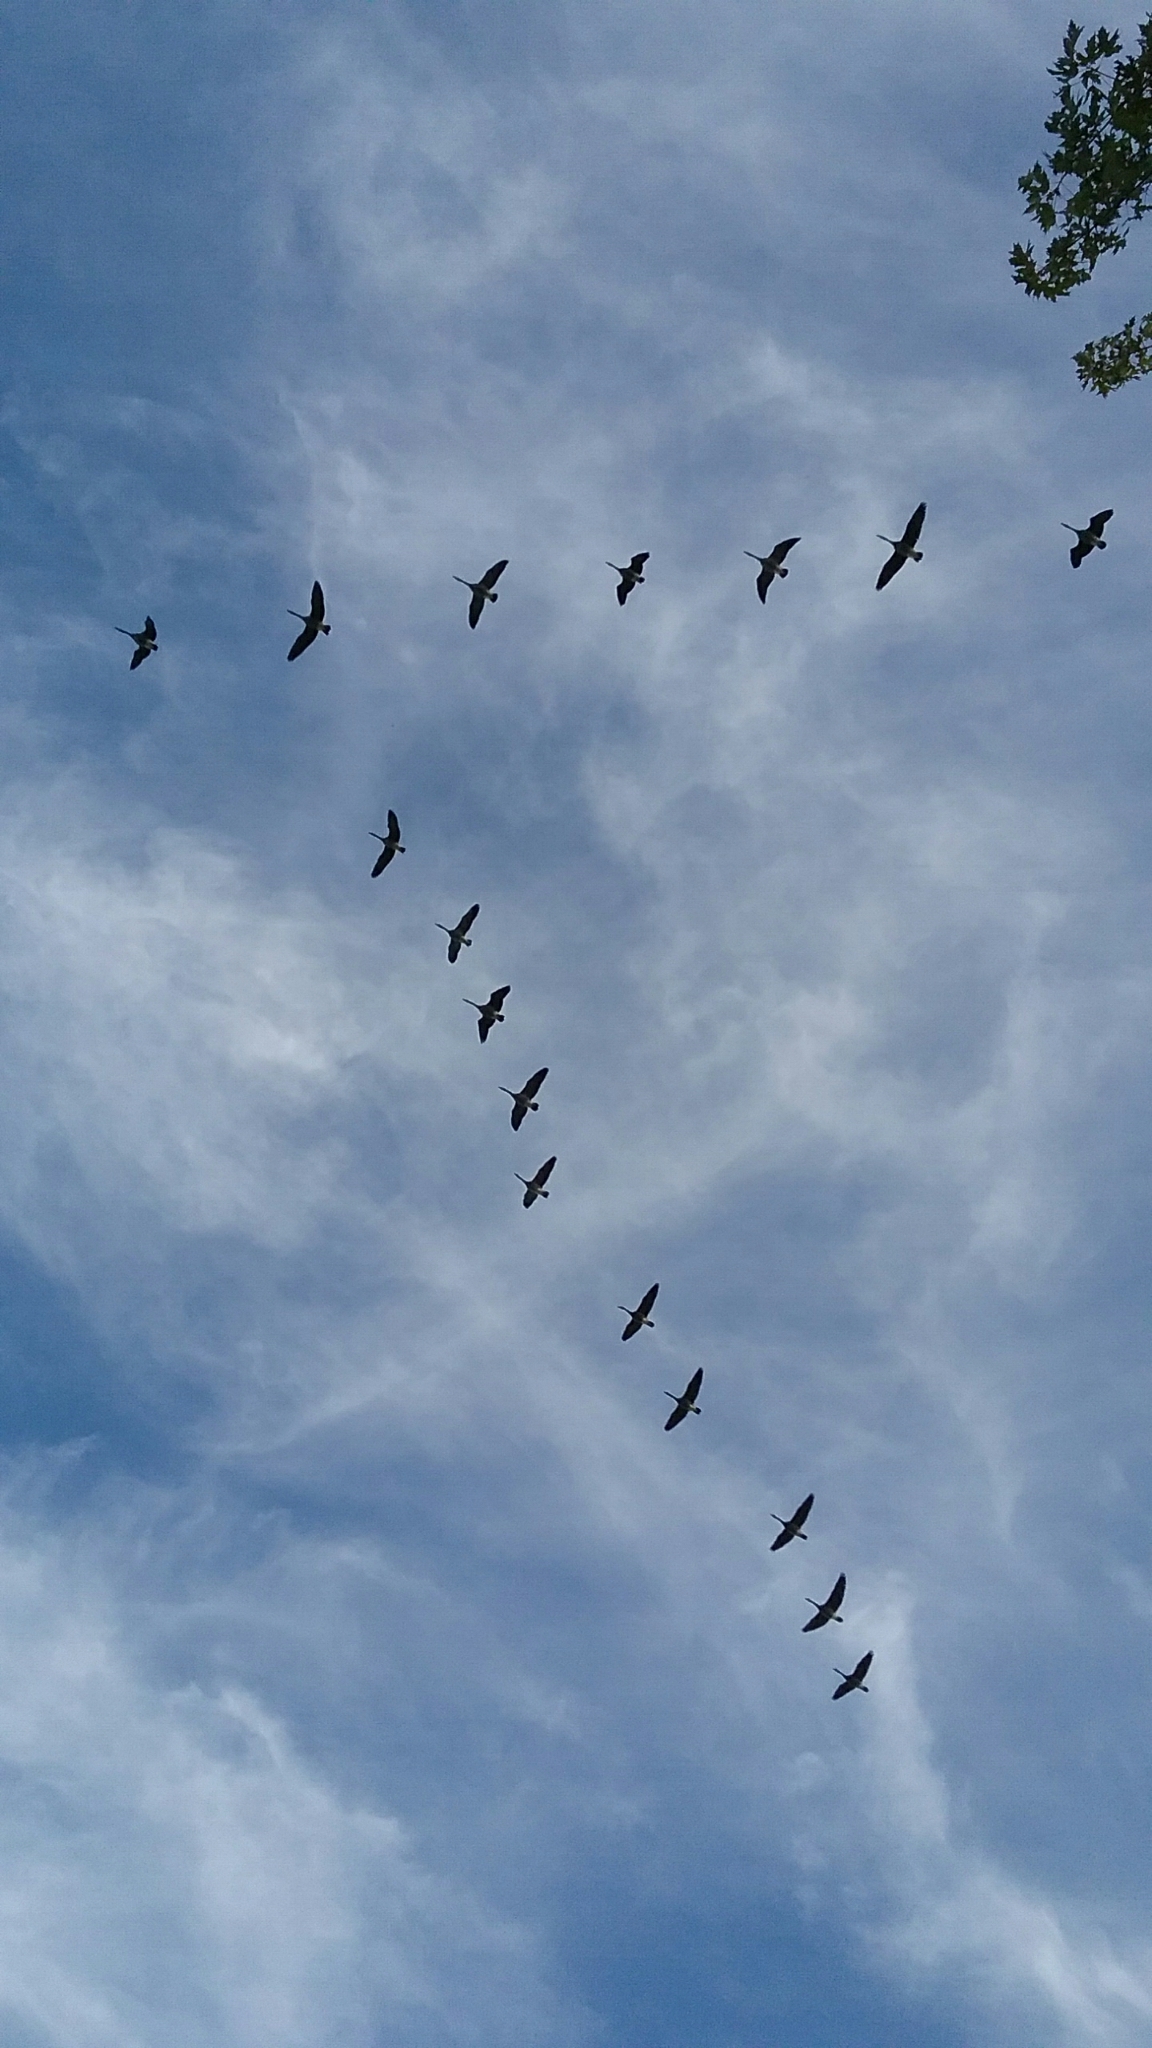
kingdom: Animalia
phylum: Chordata
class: Aves
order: Anseriformes
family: Anatidae
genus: Branta
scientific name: Branta canadensis
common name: Canada goose
